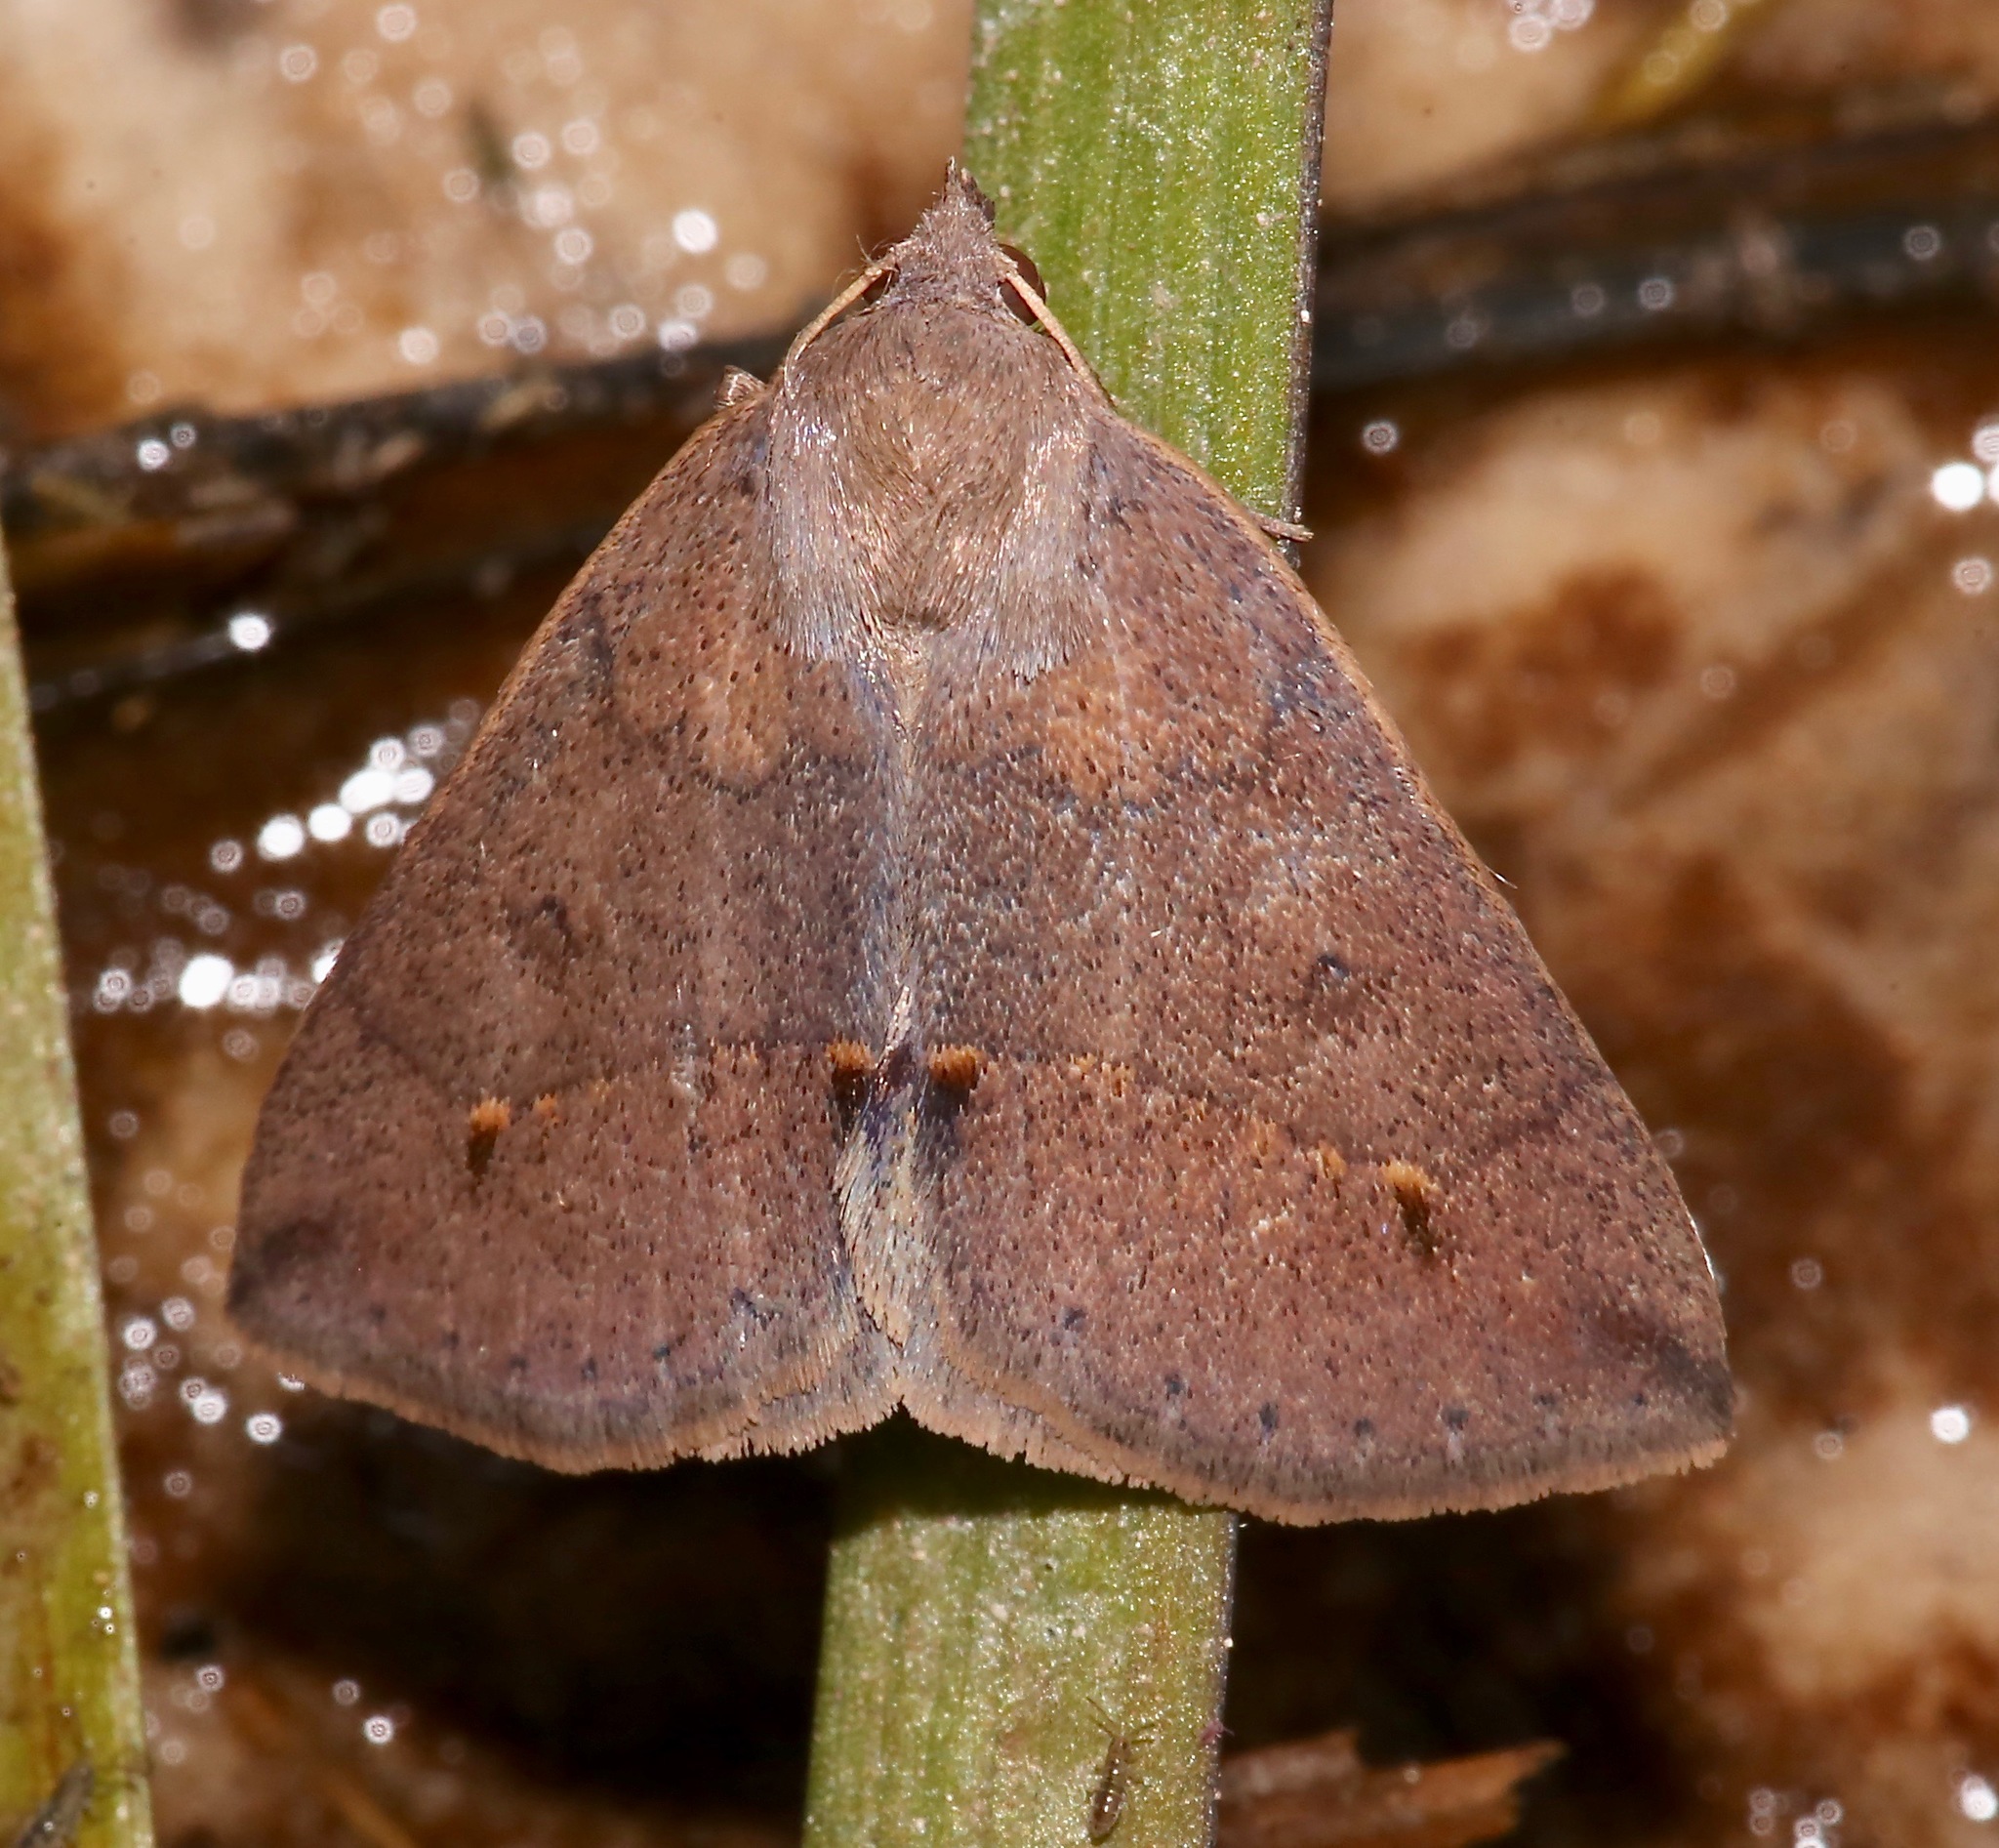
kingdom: Animalia
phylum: Arthropoda
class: Insecta
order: Lepidoptera
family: Erebidae
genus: Argyrostrotis
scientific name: Argyrostrotis flavistriaria
